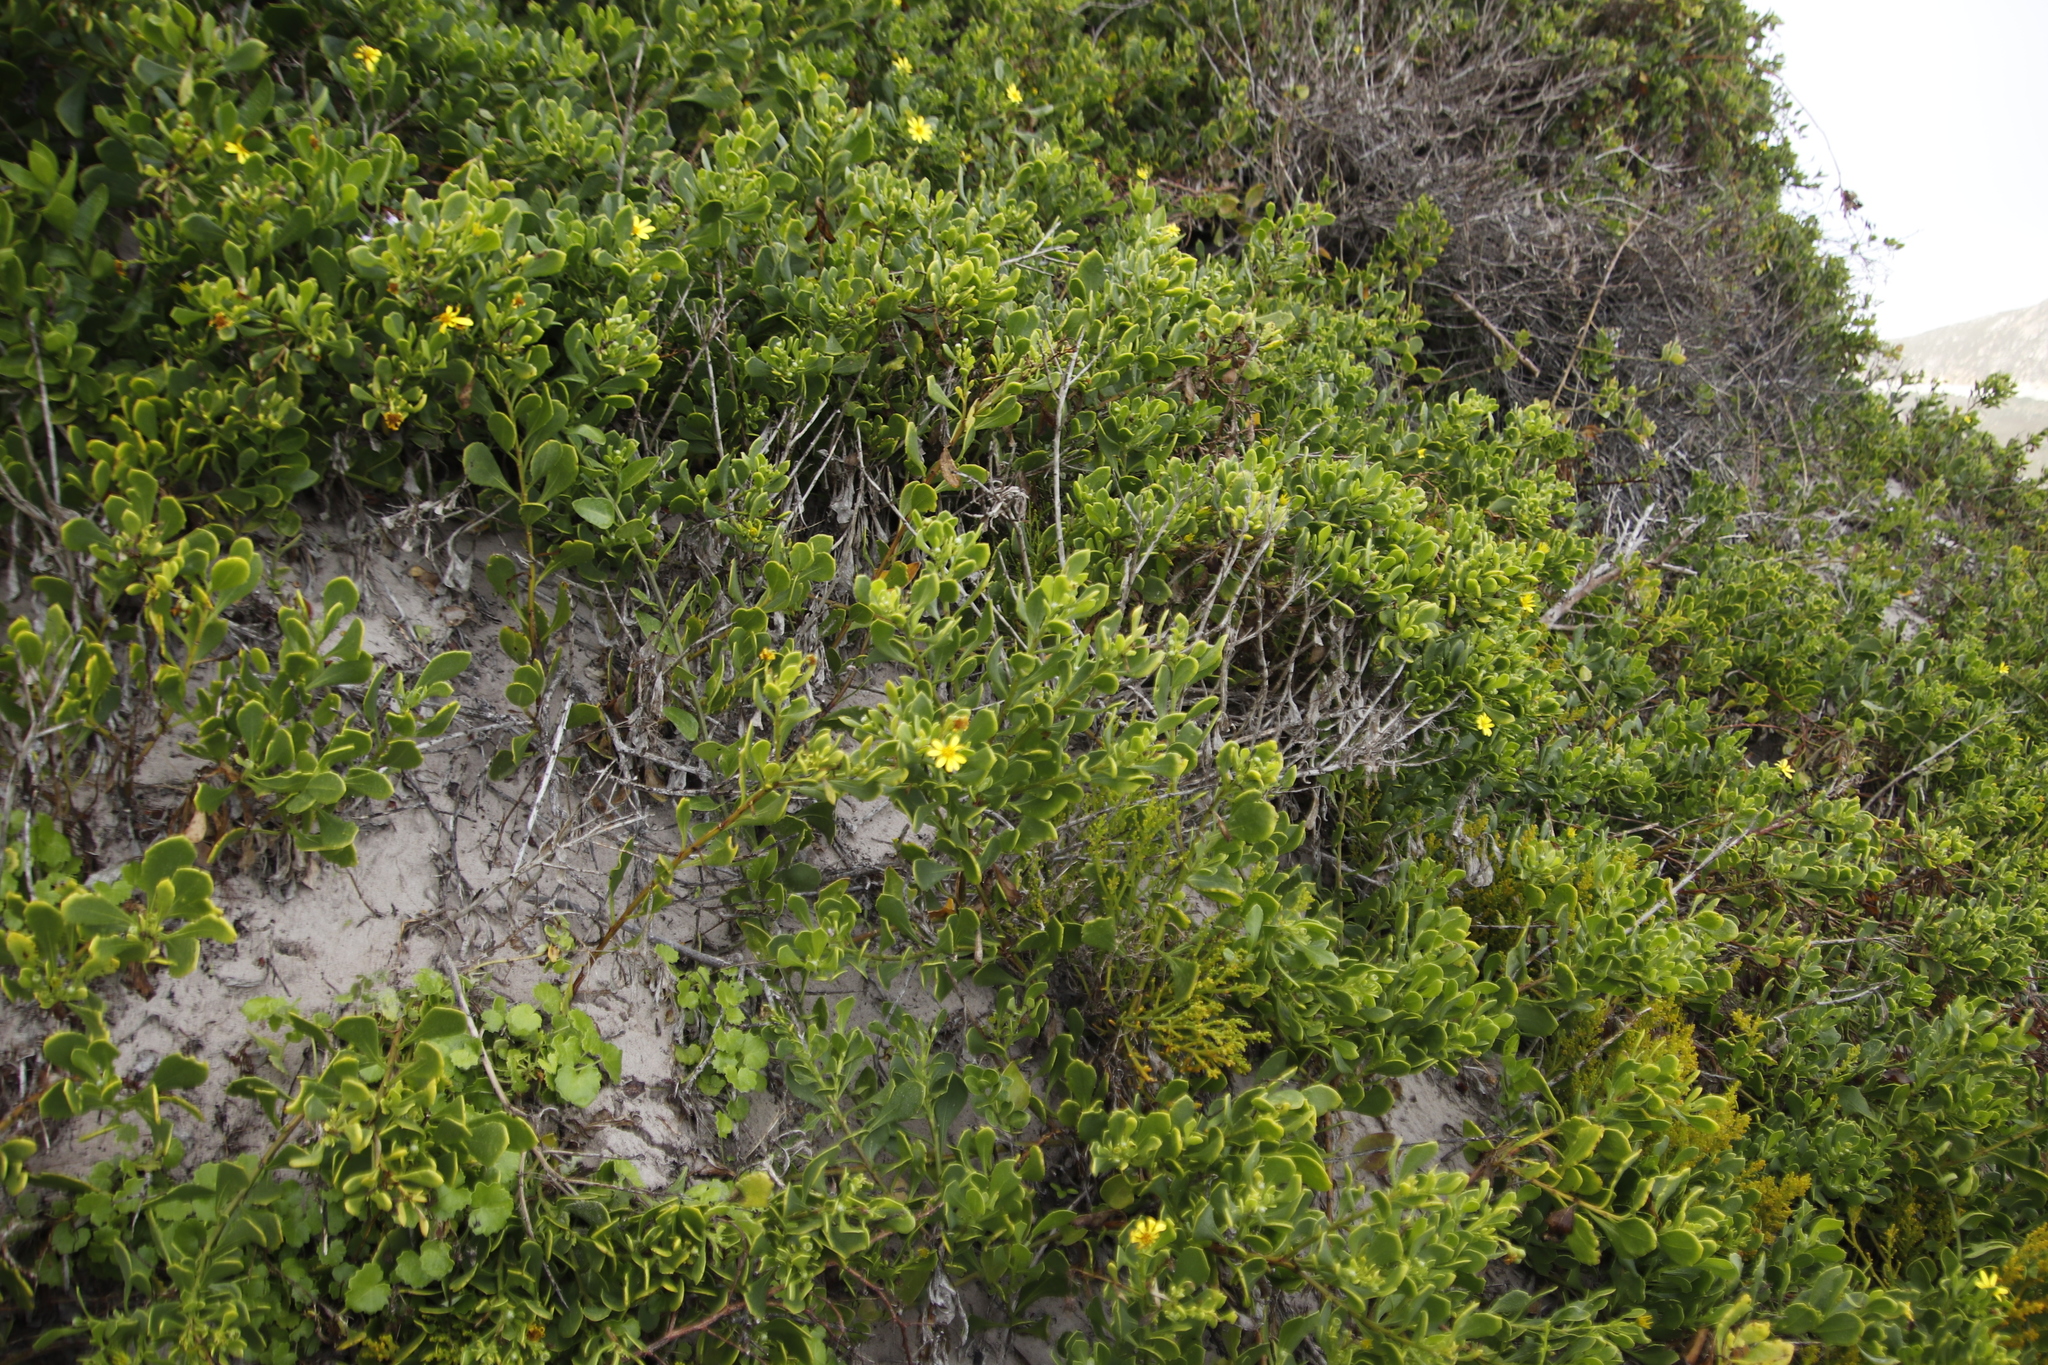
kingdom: Plantae
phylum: Tracheophyta
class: Magnoliopsida
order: Asterales
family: Asteraceae
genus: Osteospermum
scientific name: Osteospermum moniliferum
